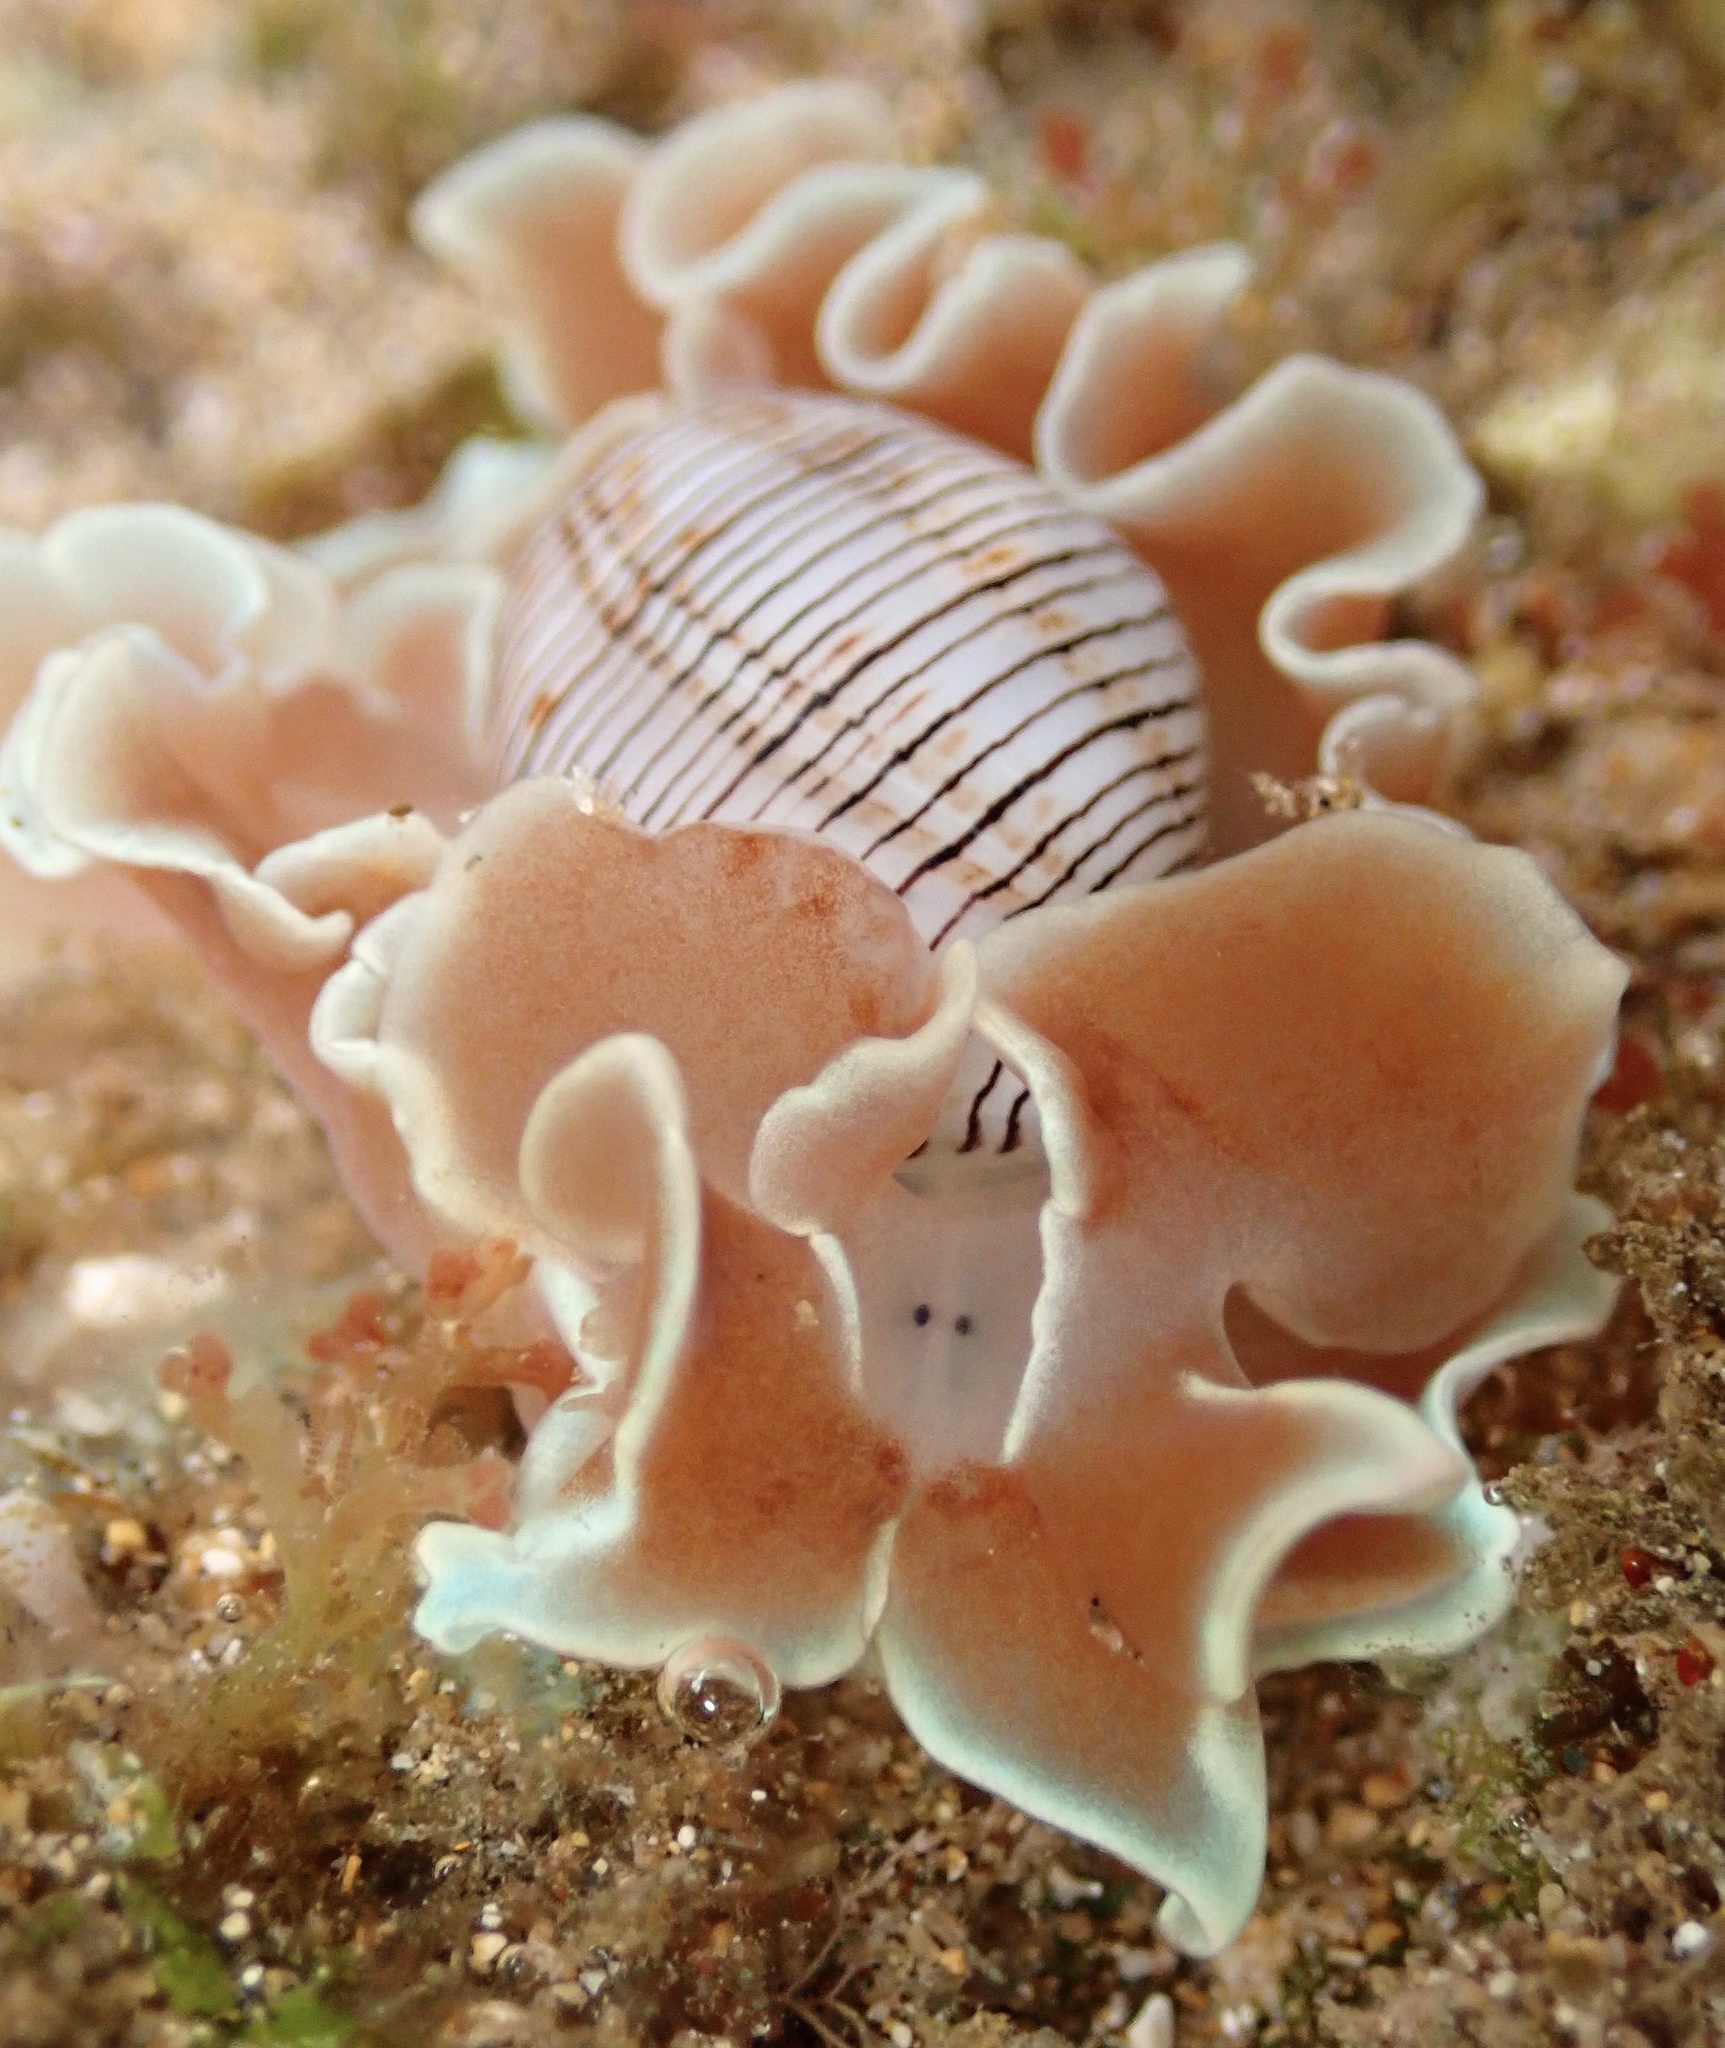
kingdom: Animalia
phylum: Mollusca
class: Gastropoda
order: Cephalaspidea
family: Aplustridae
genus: Hydatina
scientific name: Hydatina physis
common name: Brown-line paperbubble
